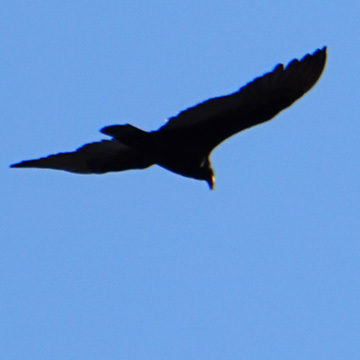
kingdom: Animalia
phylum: Chordata
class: Aves
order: Accipitriformes
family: Cathartidae
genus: Cathartes
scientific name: Cathartes aura
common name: Turkey vulture
